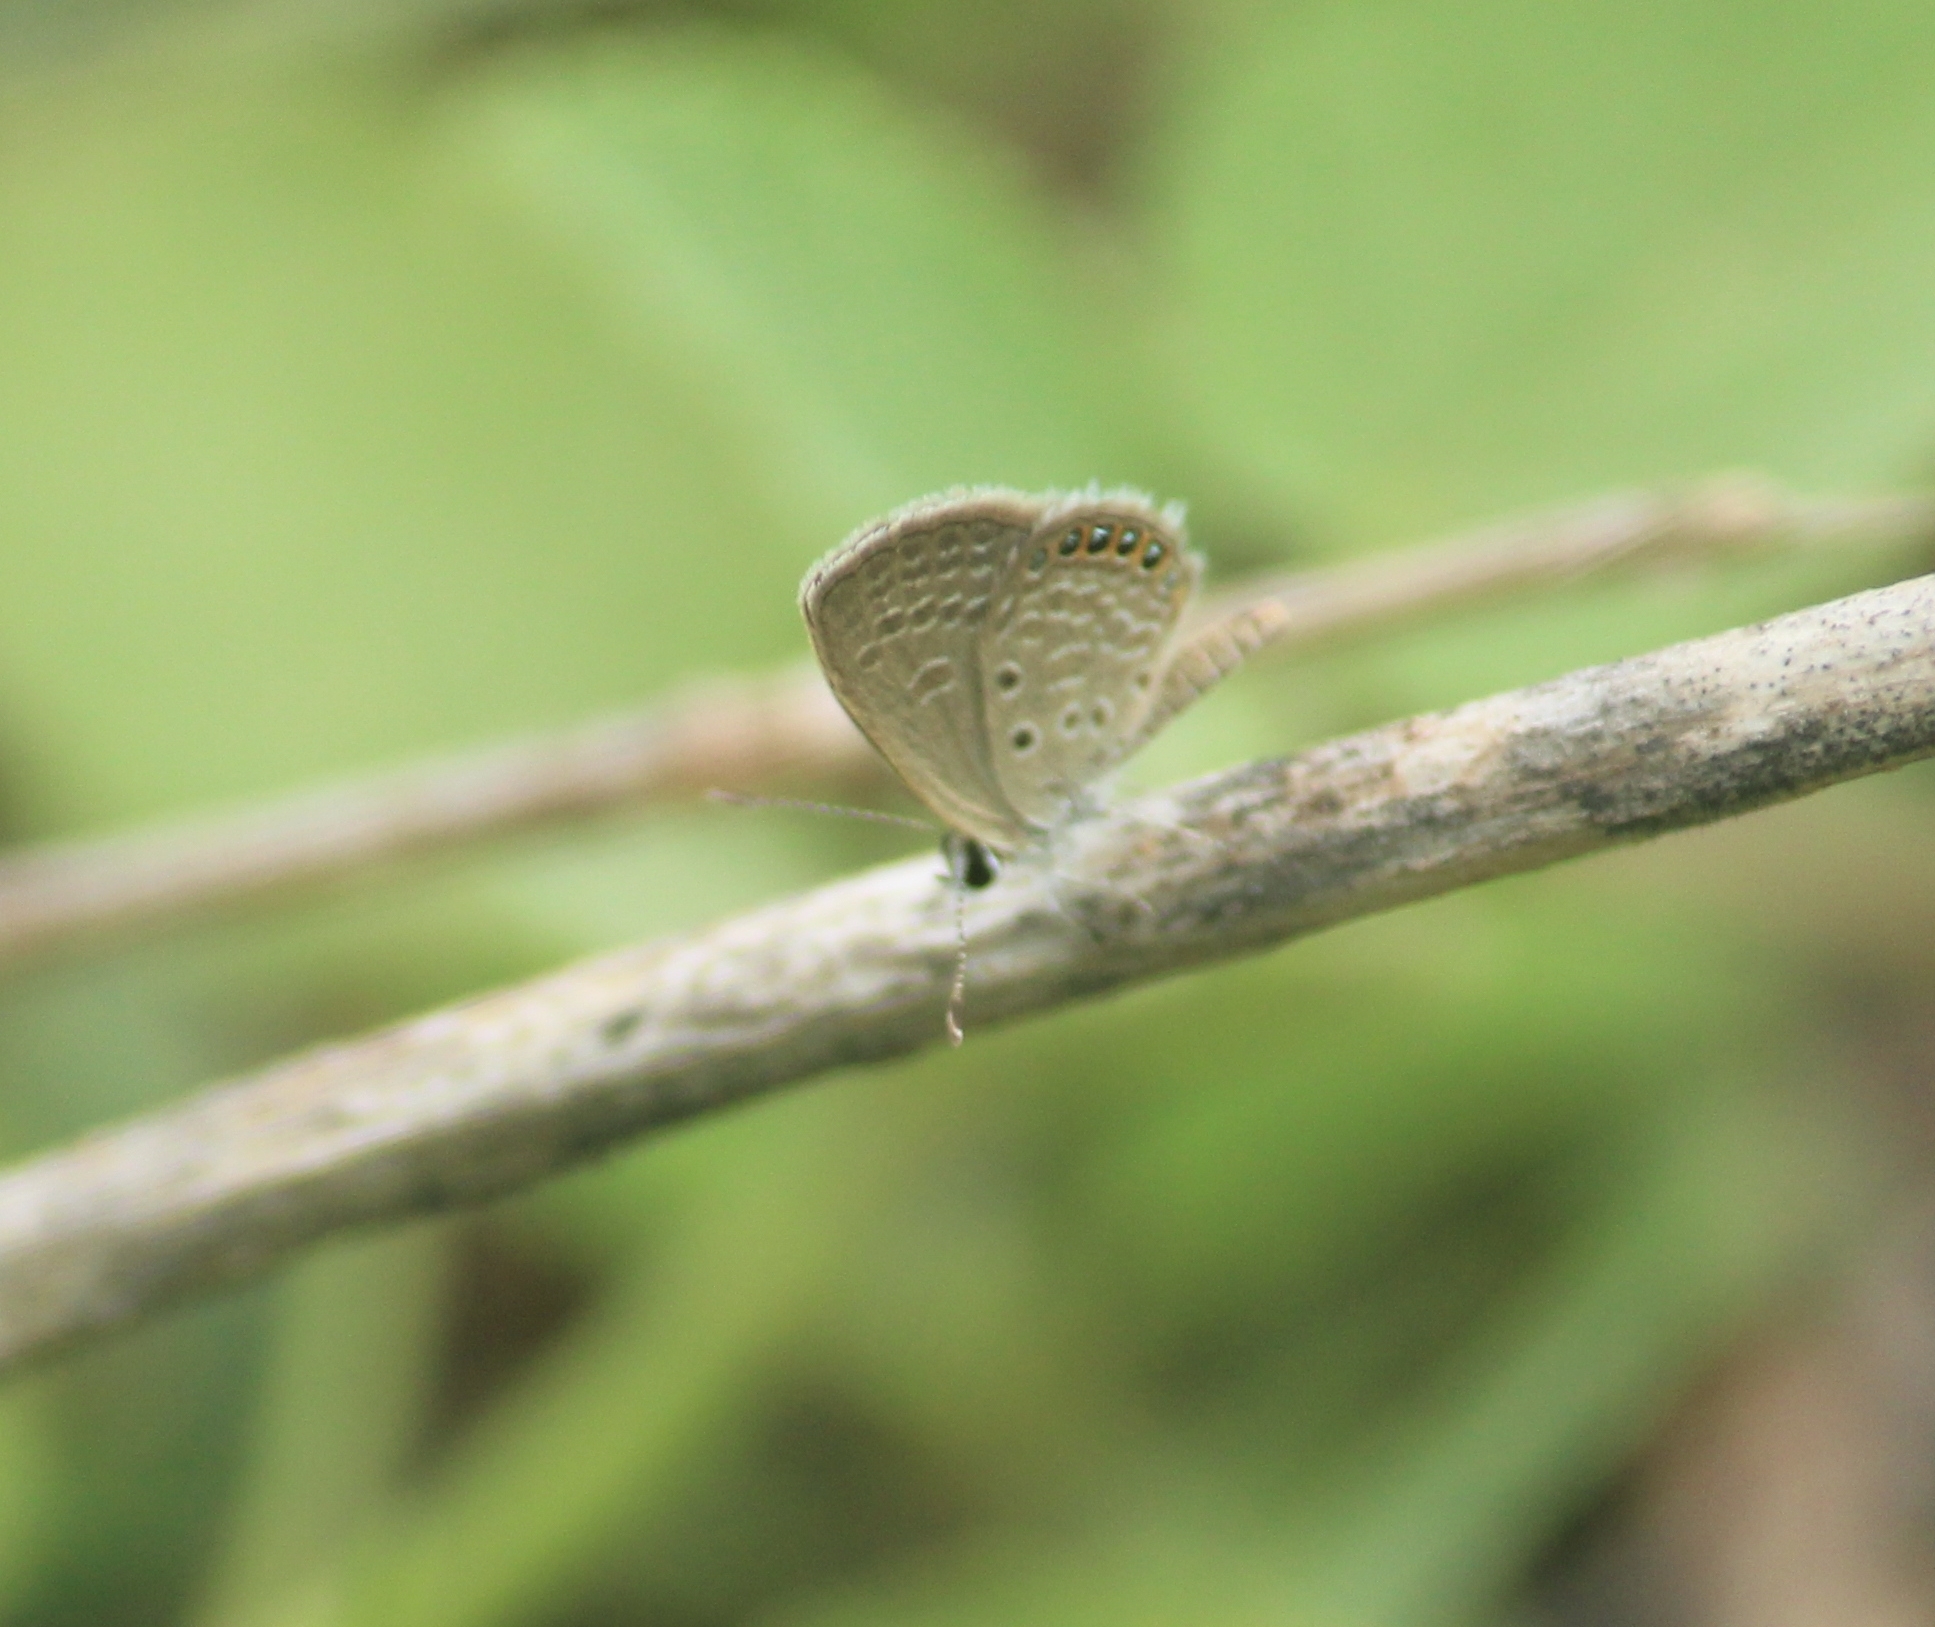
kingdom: Animalia
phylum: Arthropoda
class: Insecta
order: Lepidoptera
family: Lycaenidae
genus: Freyeria
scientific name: Freyeria putli
